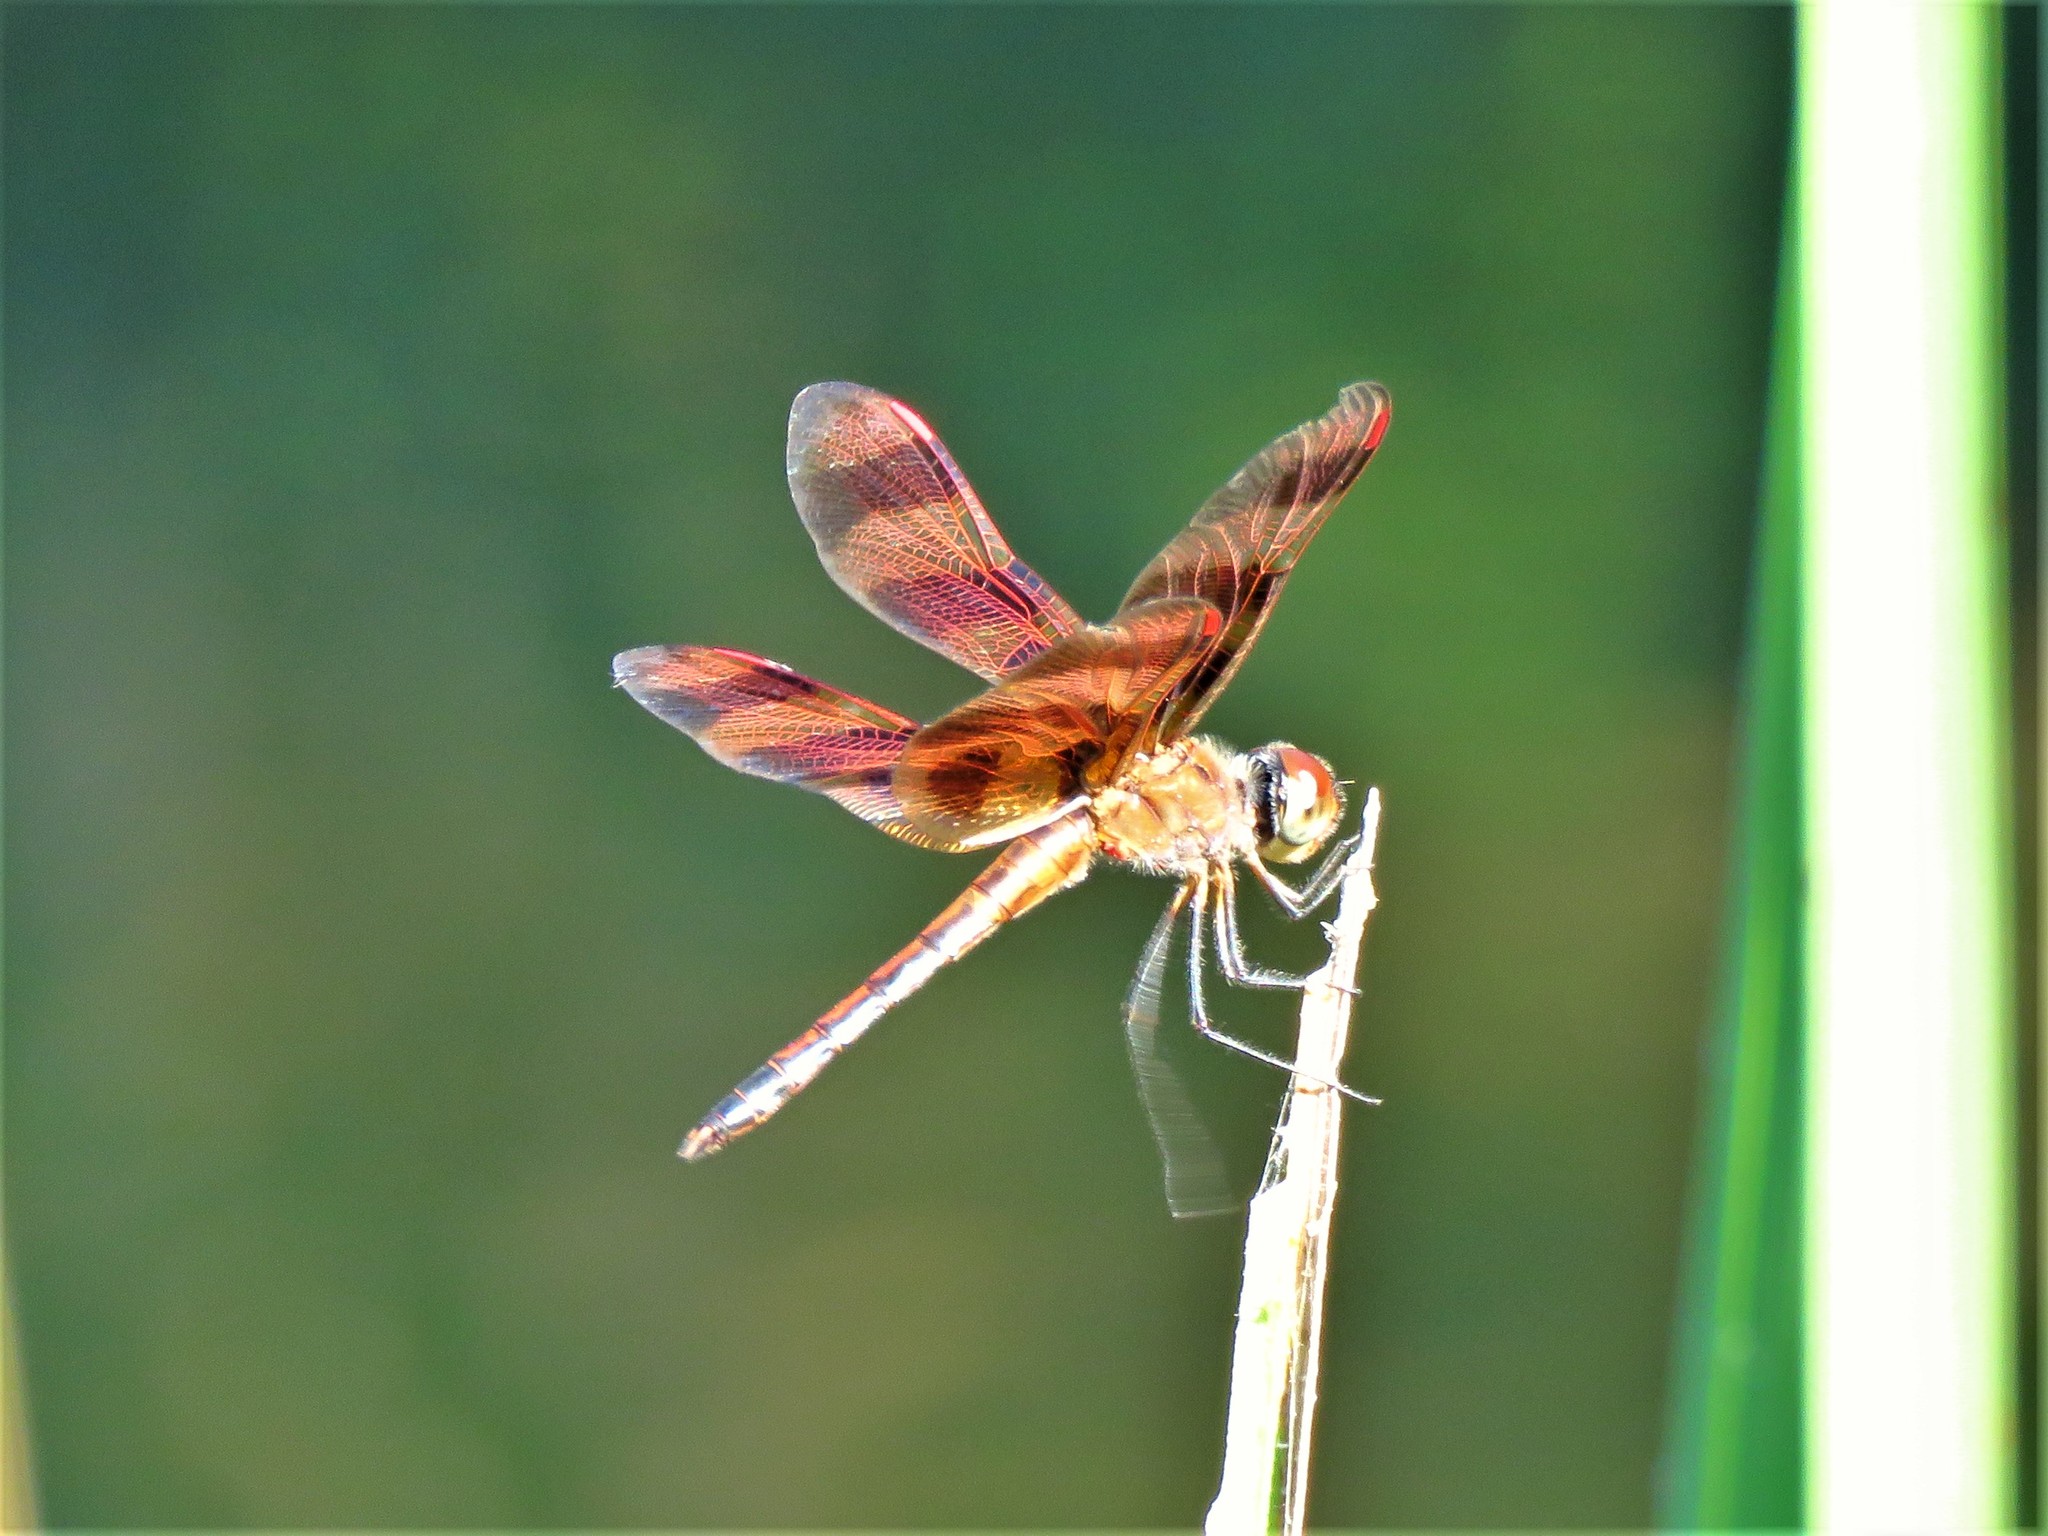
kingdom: Animalia
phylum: Arthropoda
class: Insecta
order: Odonata
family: Libellulidae
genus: Celithemis
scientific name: Celithemis eponina
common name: Halloween pennant
